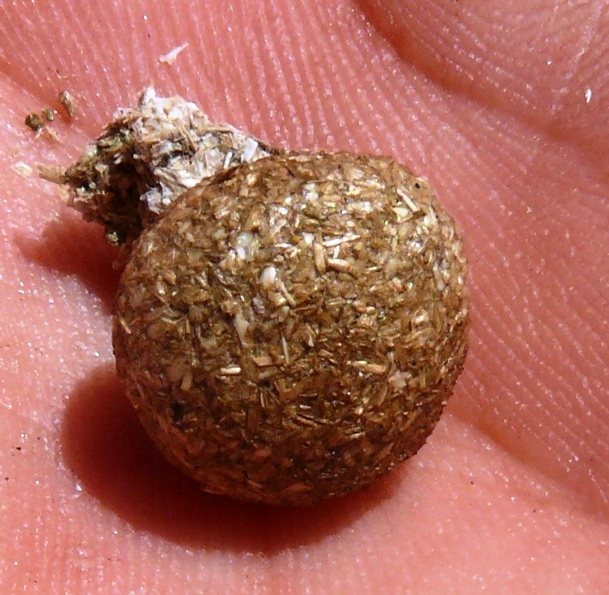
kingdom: Animalia
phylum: Chordata
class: Mammalia
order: Lagomorpha
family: Leporidae
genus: Pronolagus
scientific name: Pronolagus saundersiae
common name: Hewitt's red rock hare
